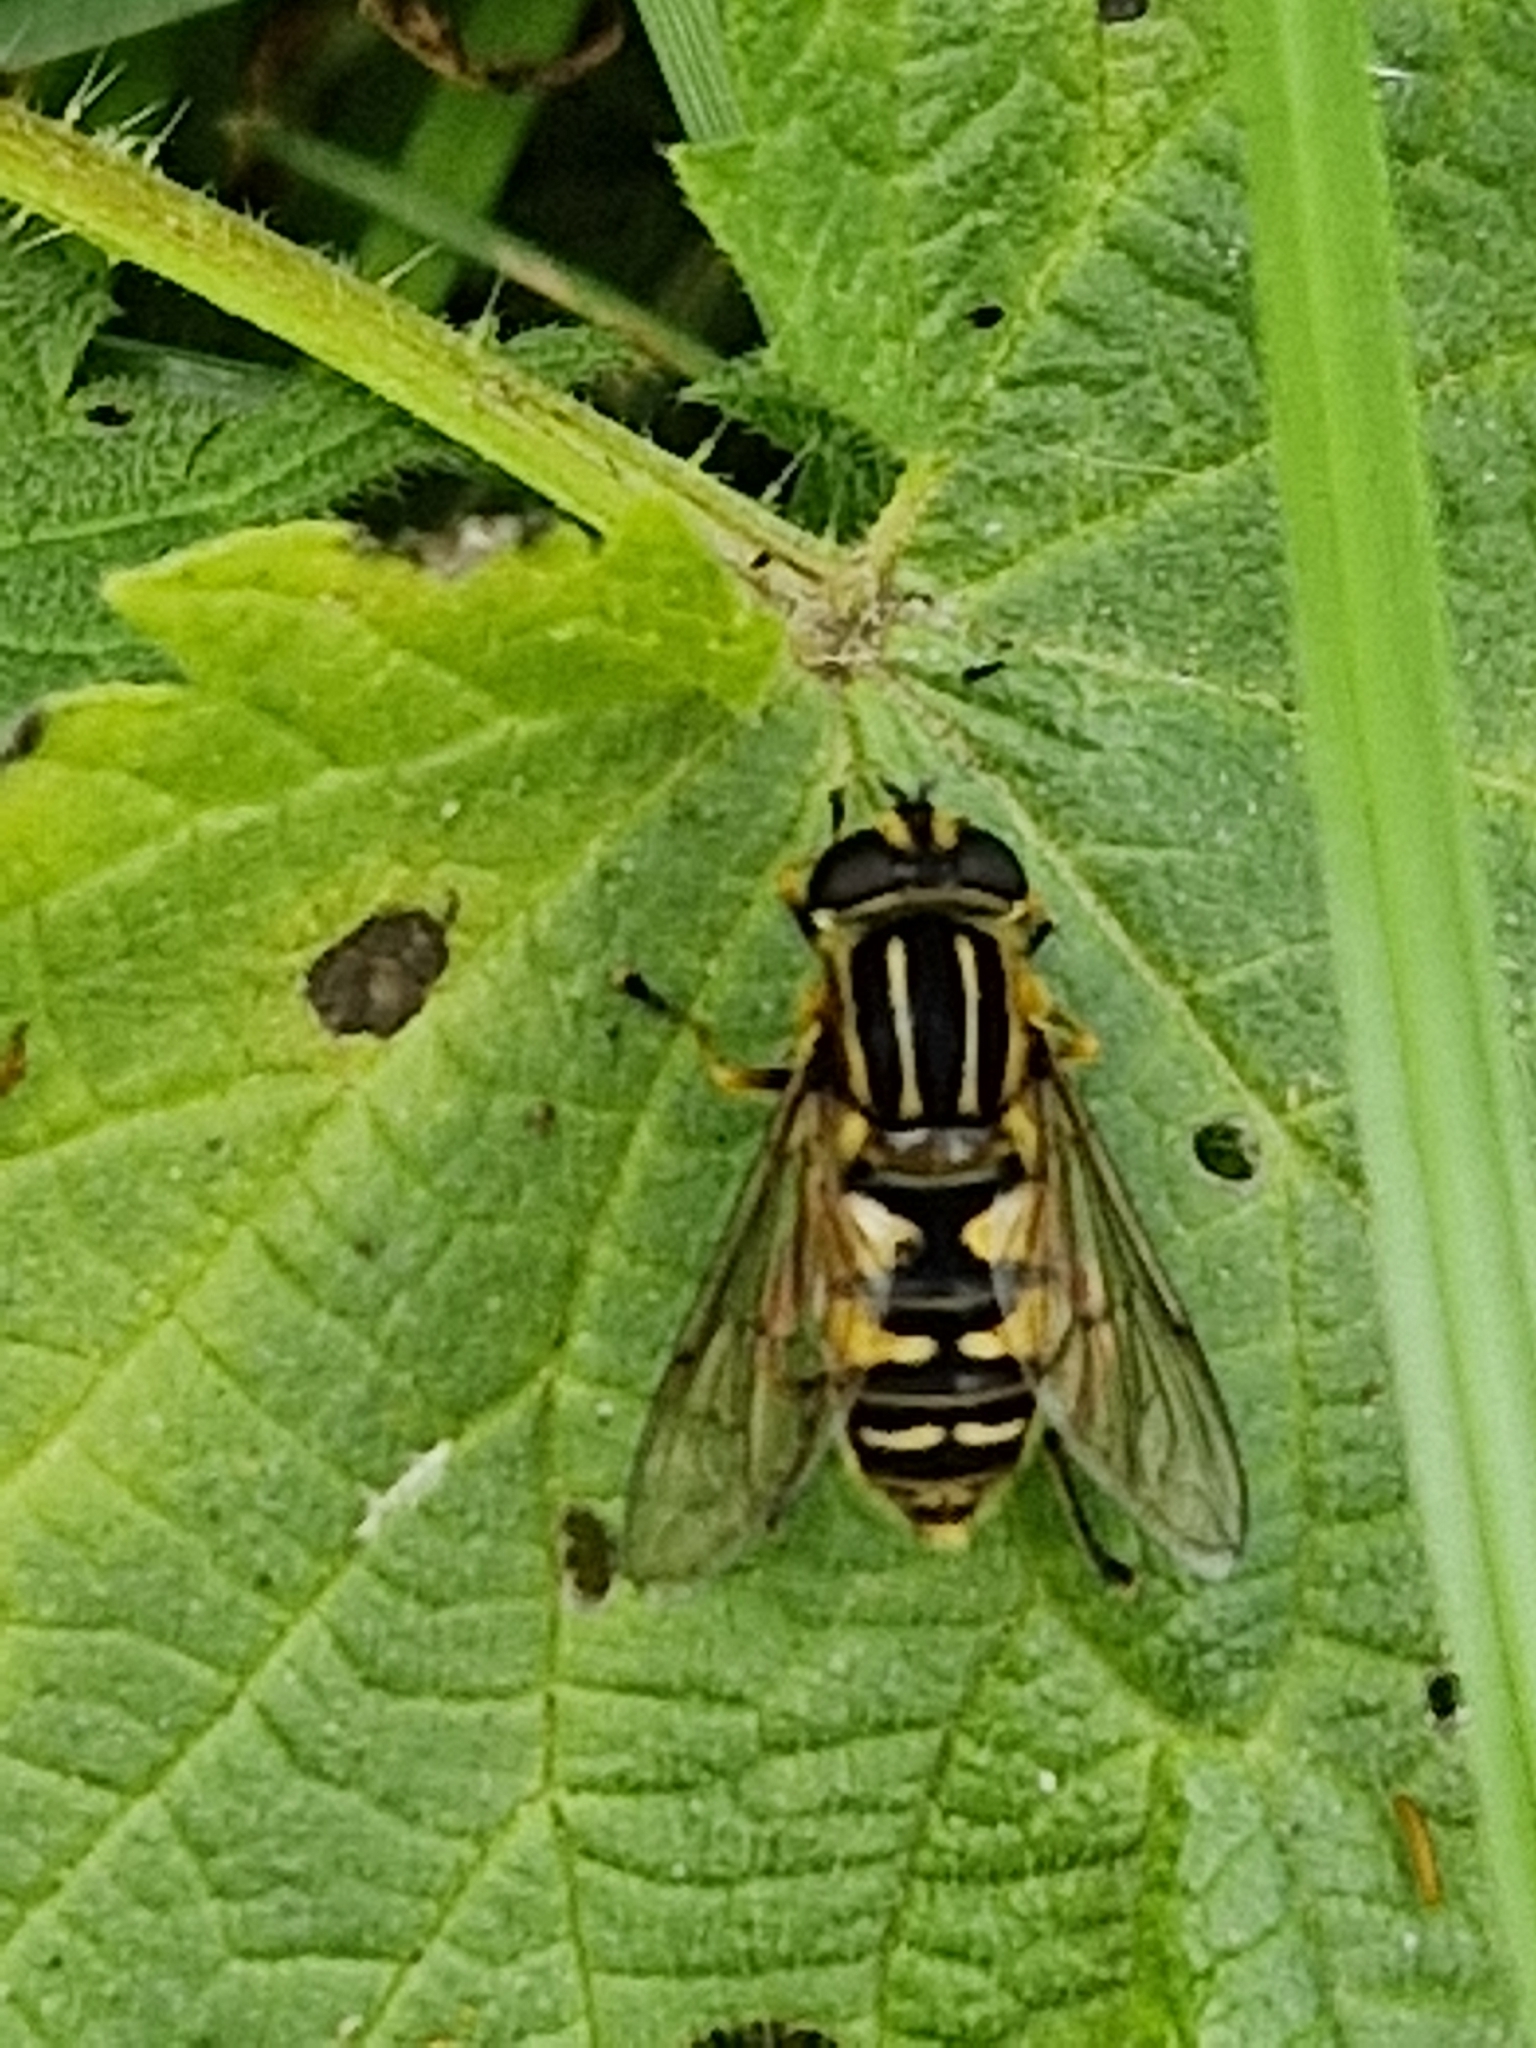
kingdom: Animalia
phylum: Arthropoda
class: Insecta
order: Diptera
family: Syrphidae
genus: Helophilus
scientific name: Helophilus pendulus
